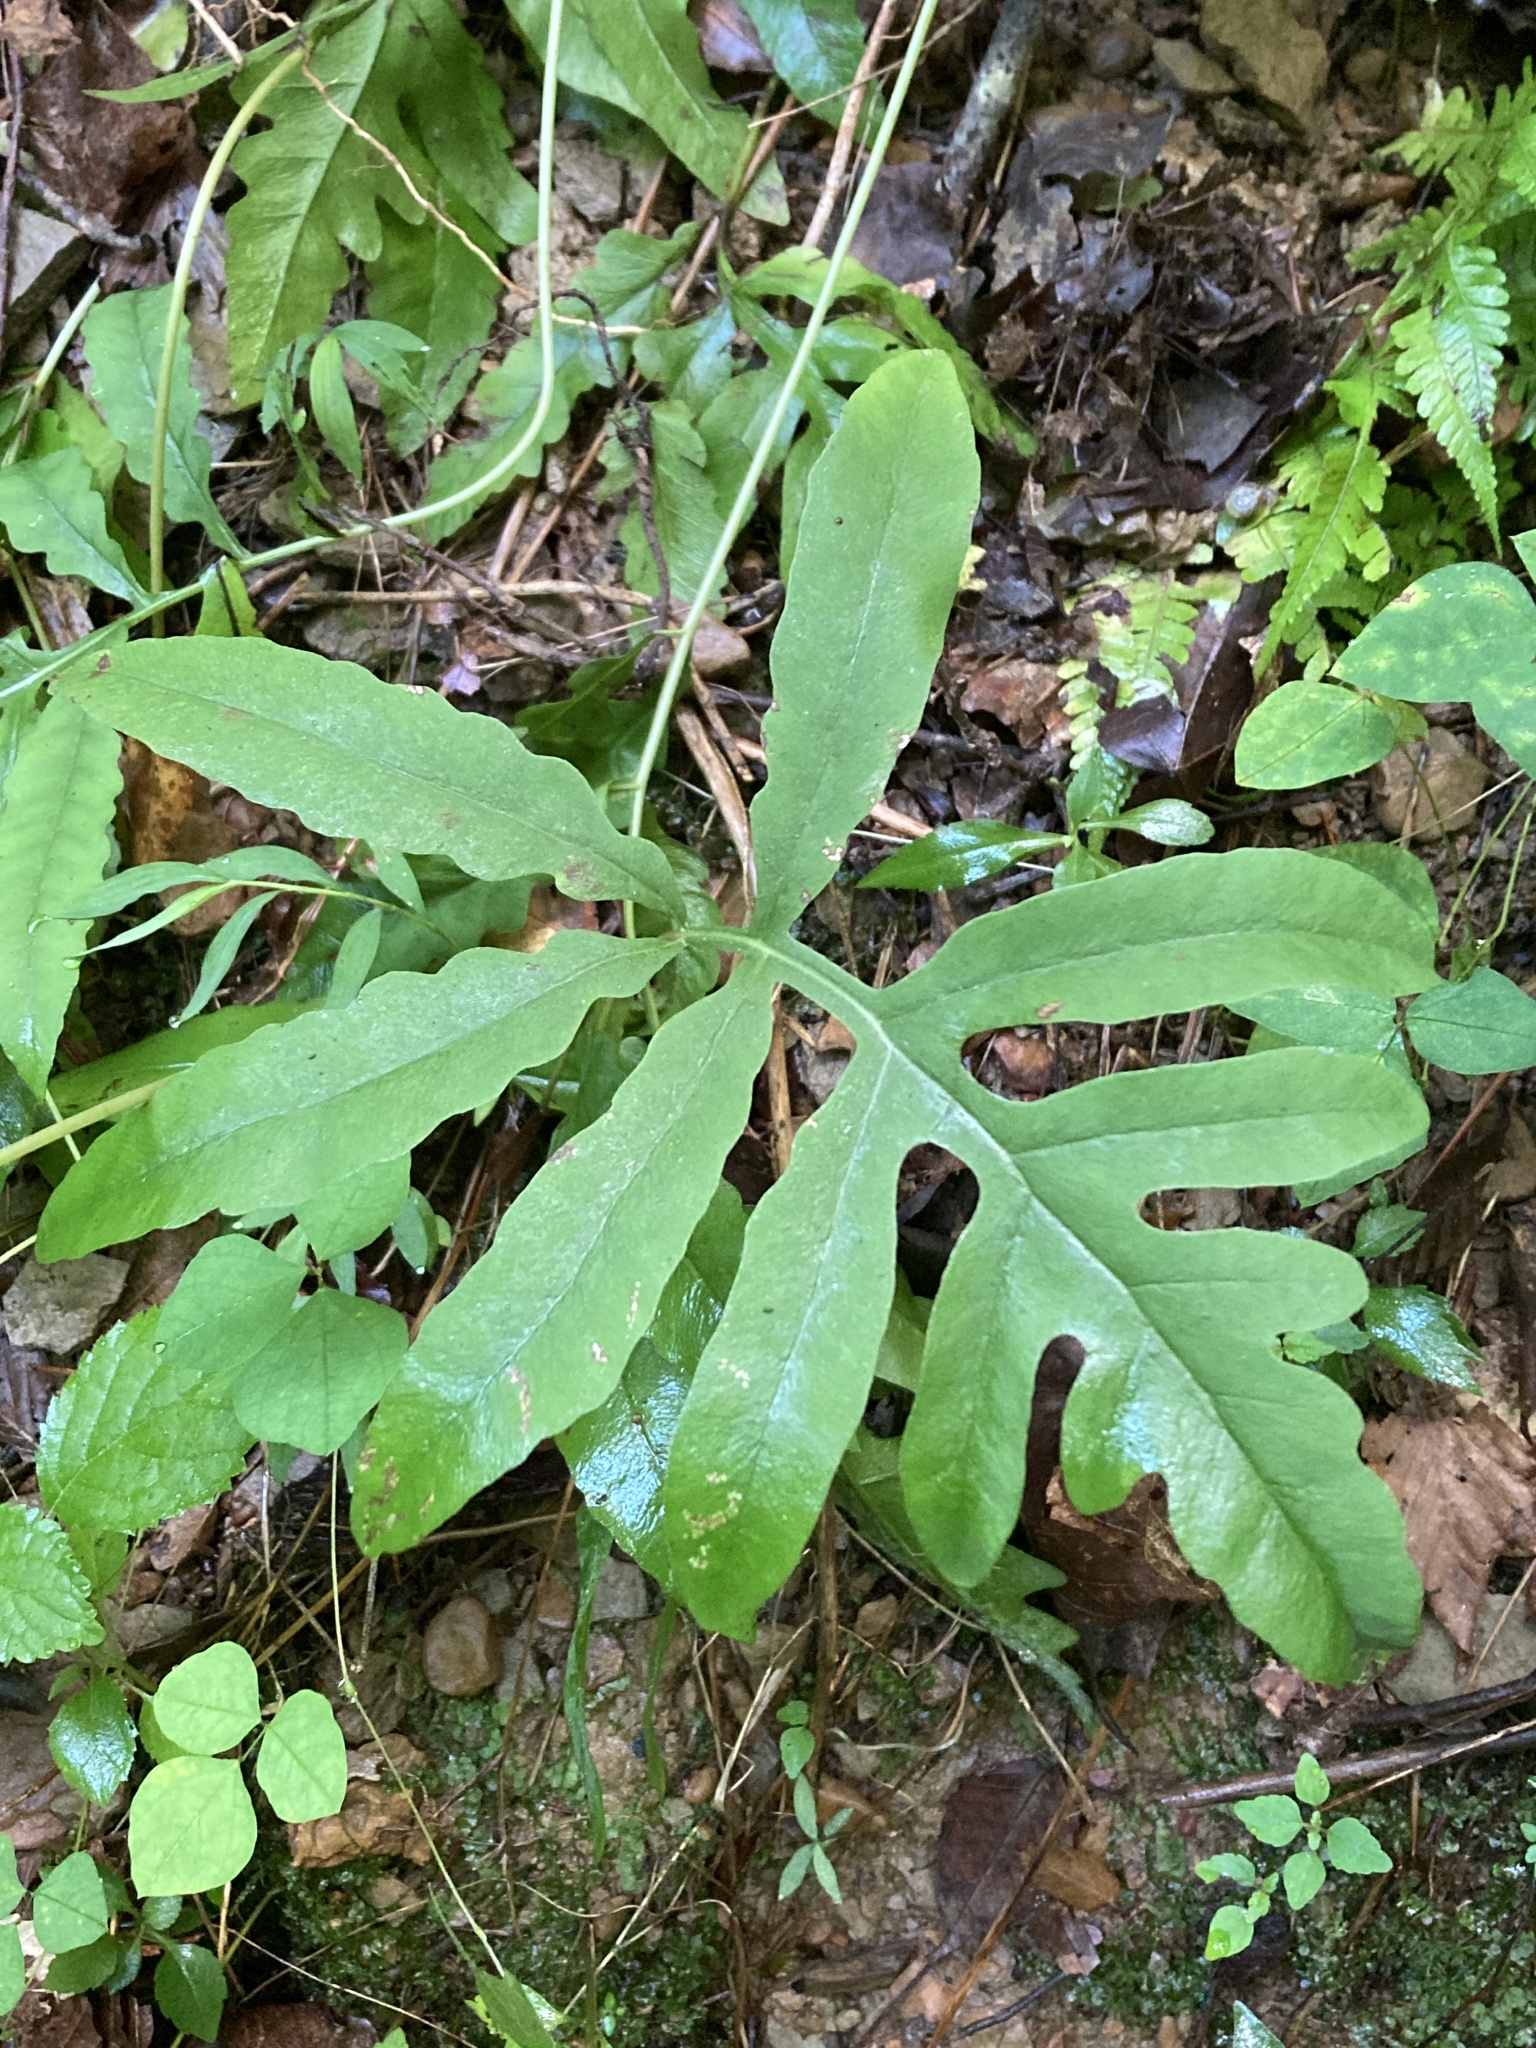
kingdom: Plantae
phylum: Tracheophyta
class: Polypodiopsida
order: Polypodiales
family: Onocleaceae
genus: Onoclea
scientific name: Onoclea sensibilis
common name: Sensitive fern
